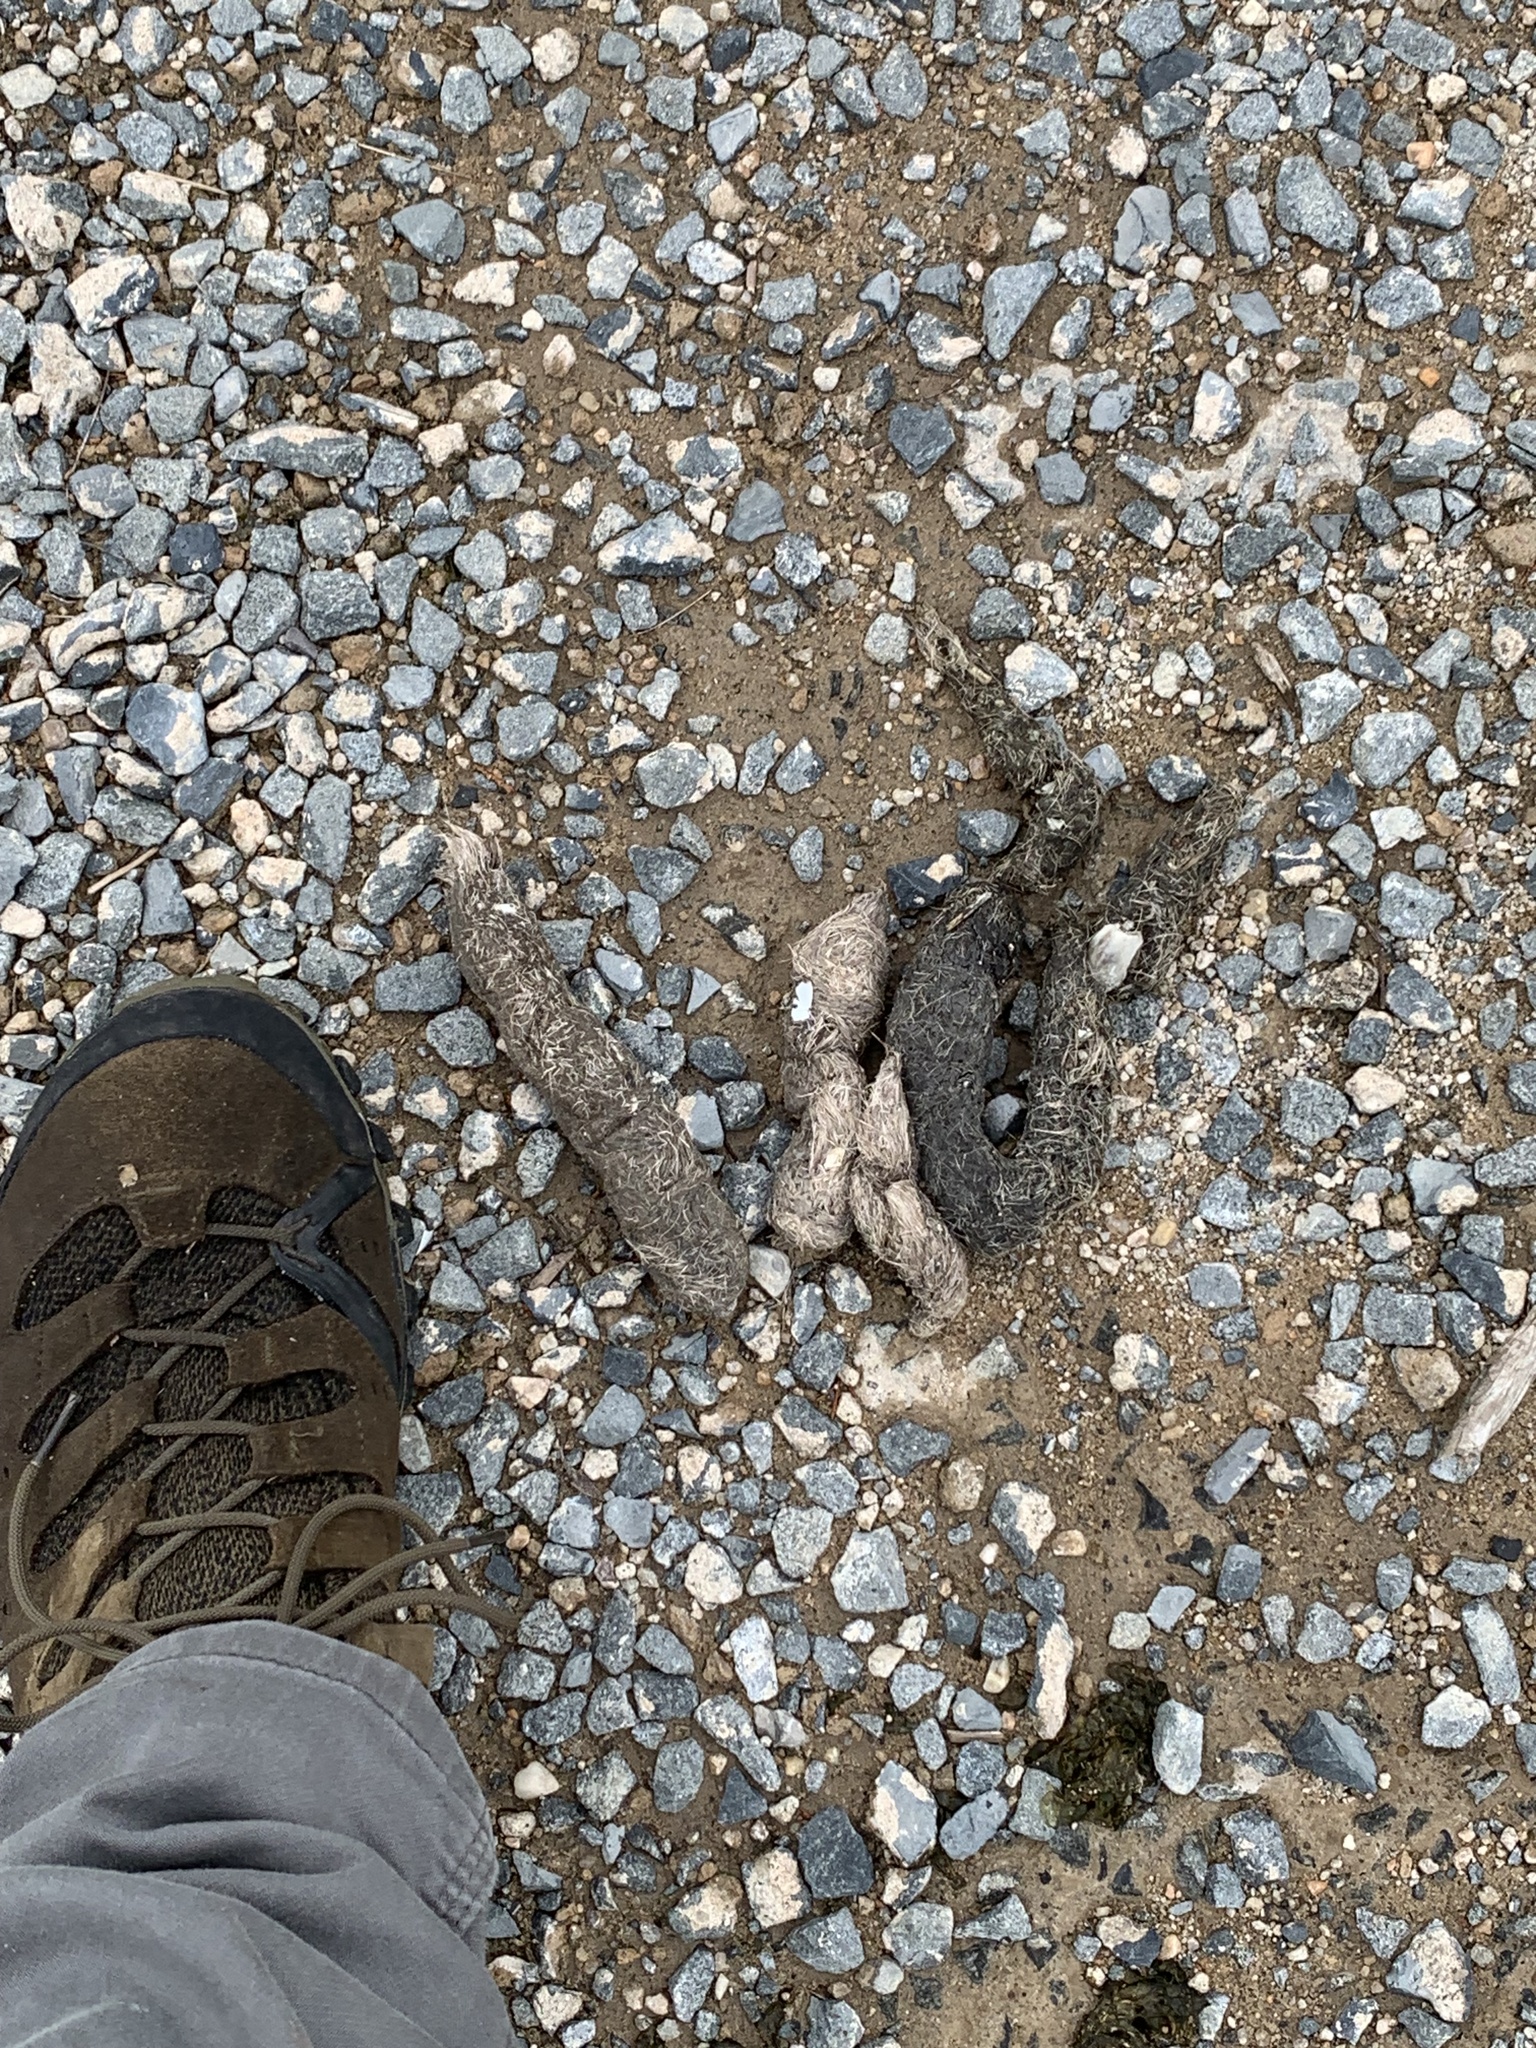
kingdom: Animalia
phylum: Chordata
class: Mammalia
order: Carnivora
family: Canidae
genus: Canis
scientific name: Canis latrans
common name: Coyote
